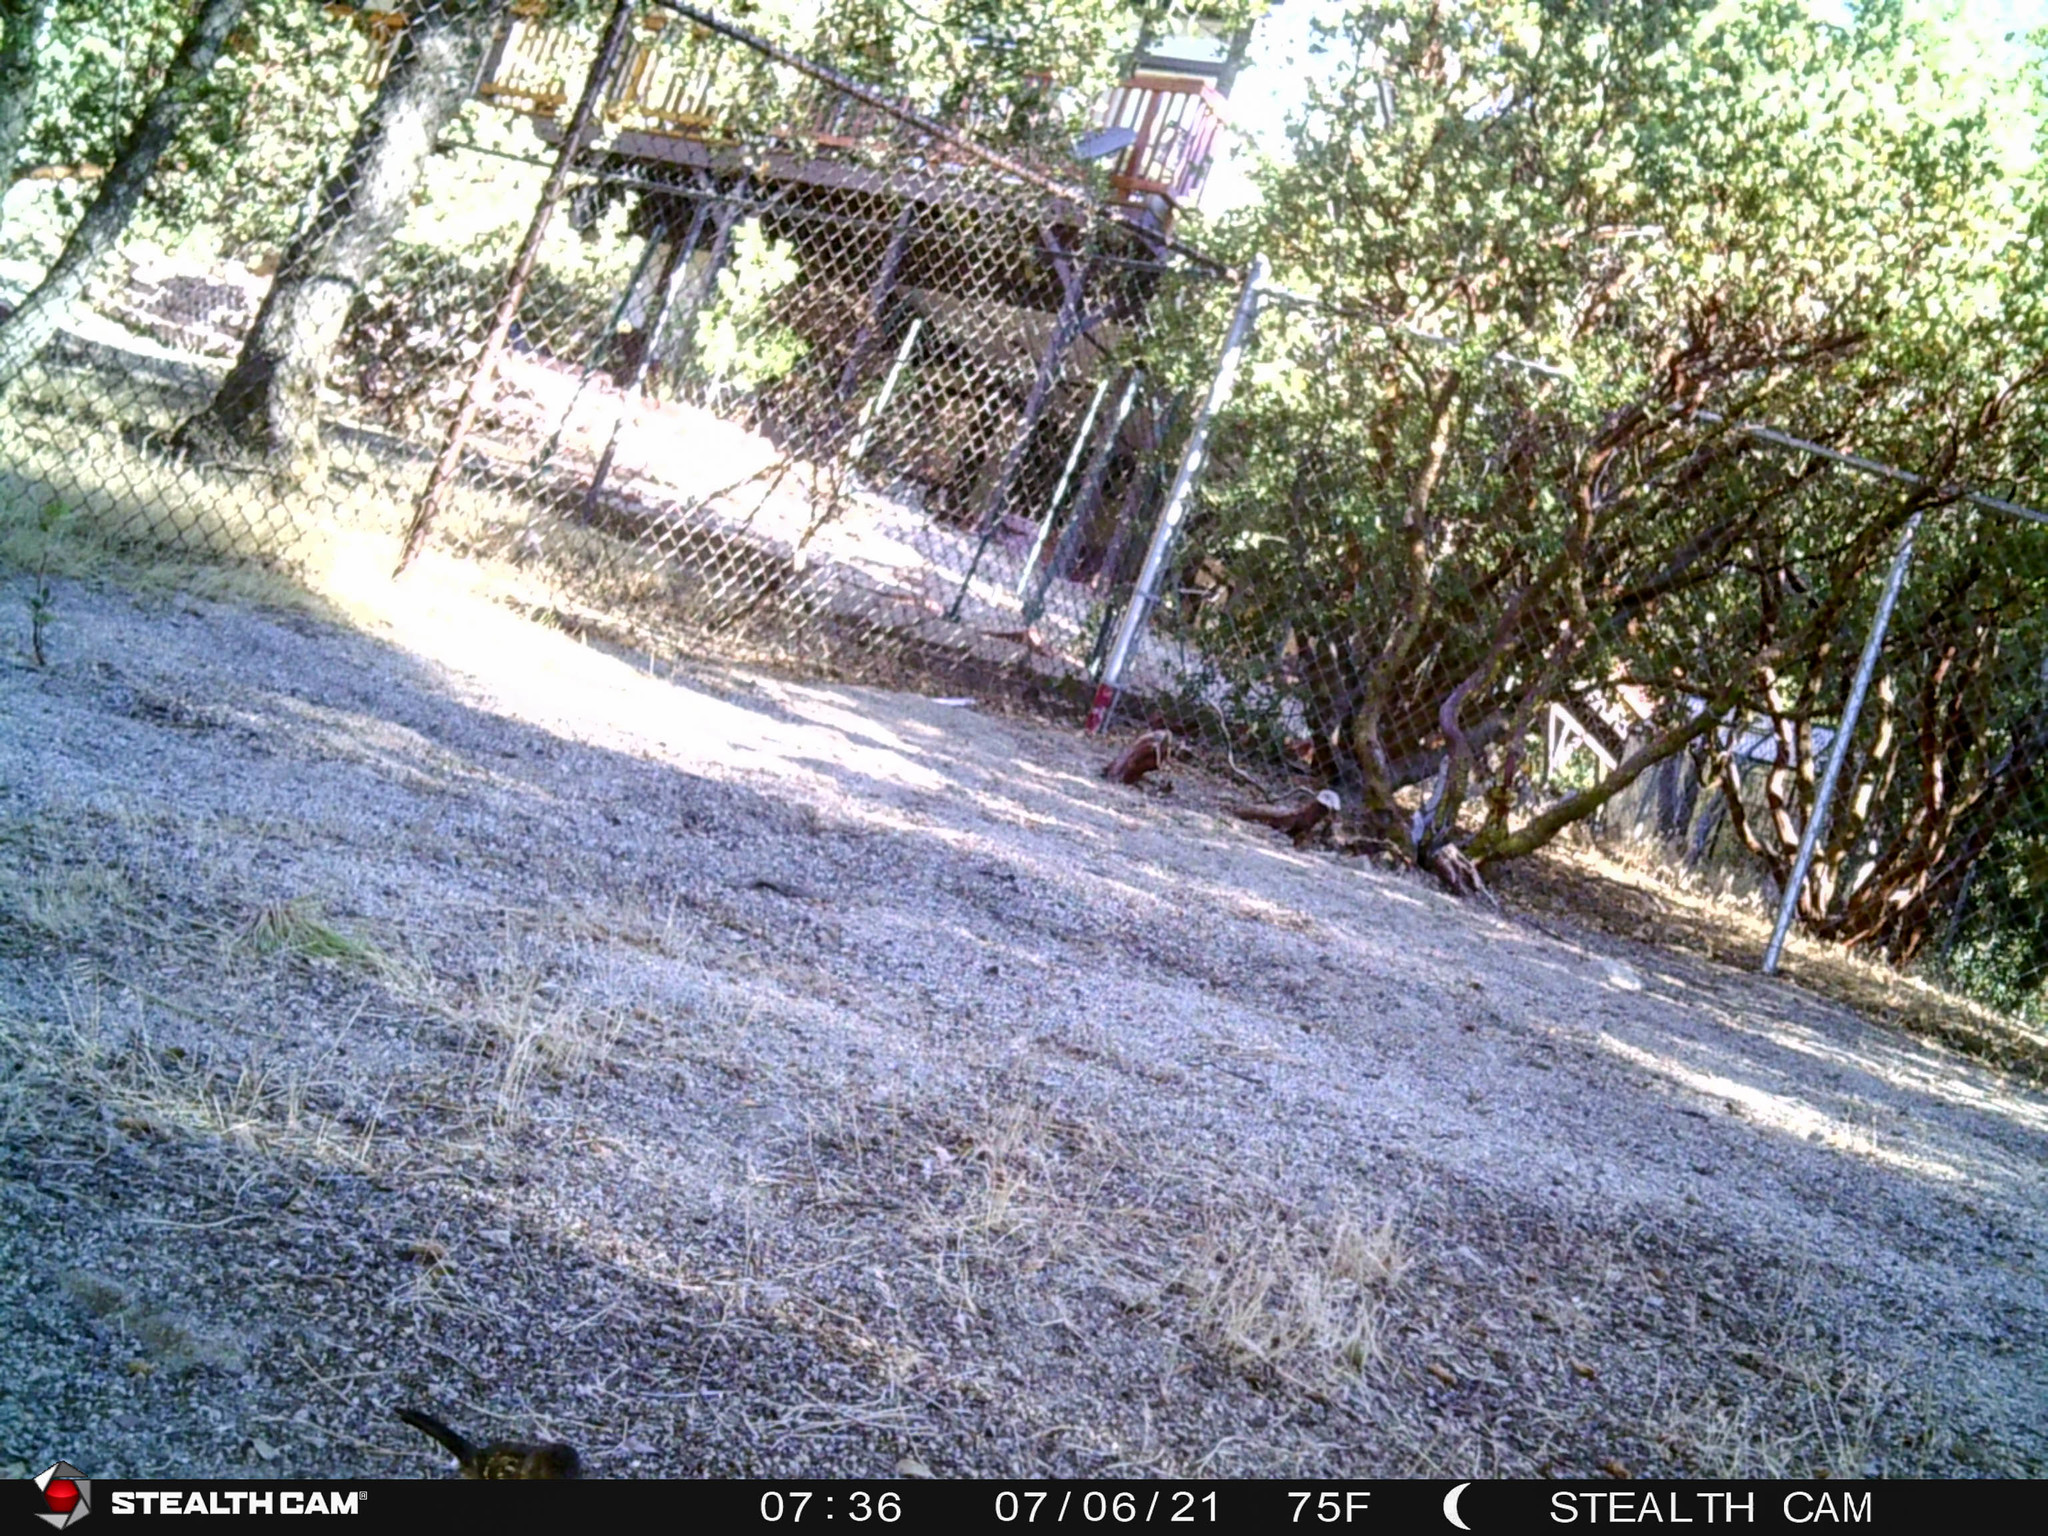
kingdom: Animalia
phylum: Chordata
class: Aves
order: Passeriformes
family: Passerellidae
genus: Pipilo
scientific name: Pipilo maculatus
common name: Spotted towhee
